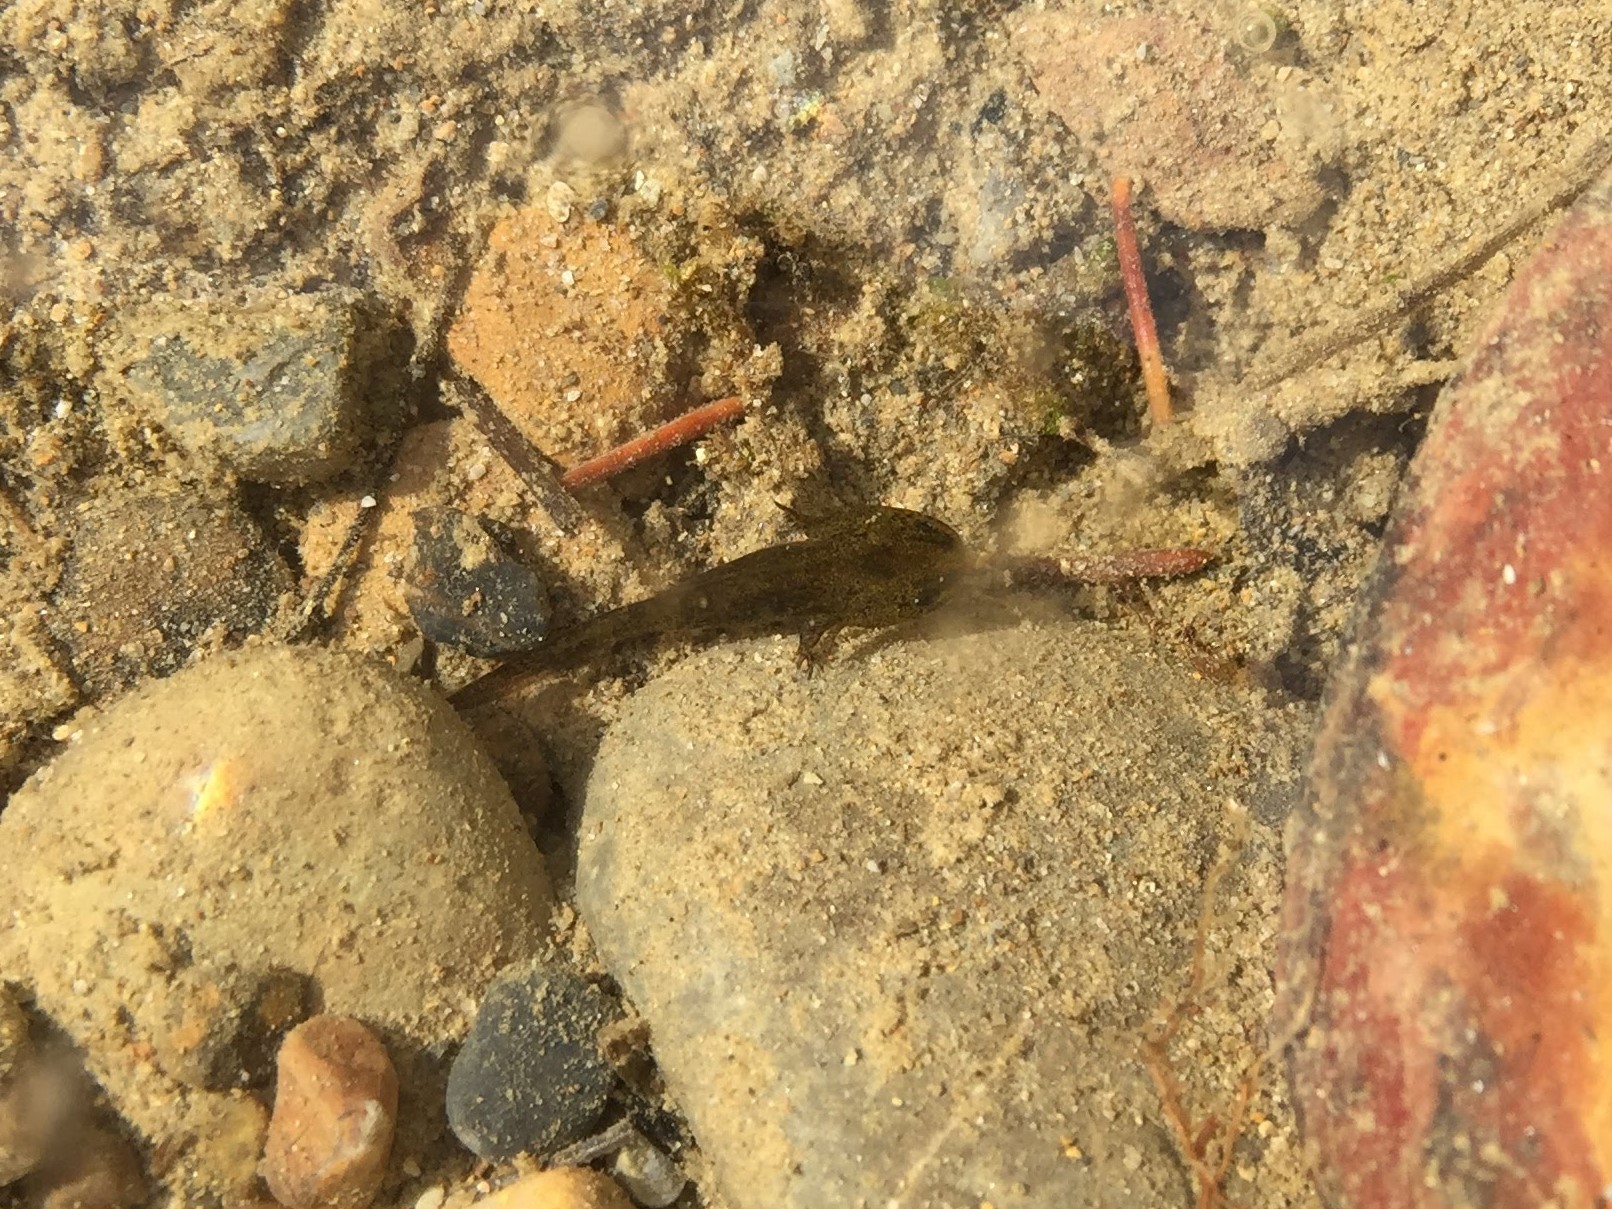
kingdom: Animalia
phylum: Chordata
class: Amphibia
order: Caudata
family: Ambystomatidae
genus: Ambystoma
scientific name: Ambystoma macrodactylum
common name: Long-toed salamander
